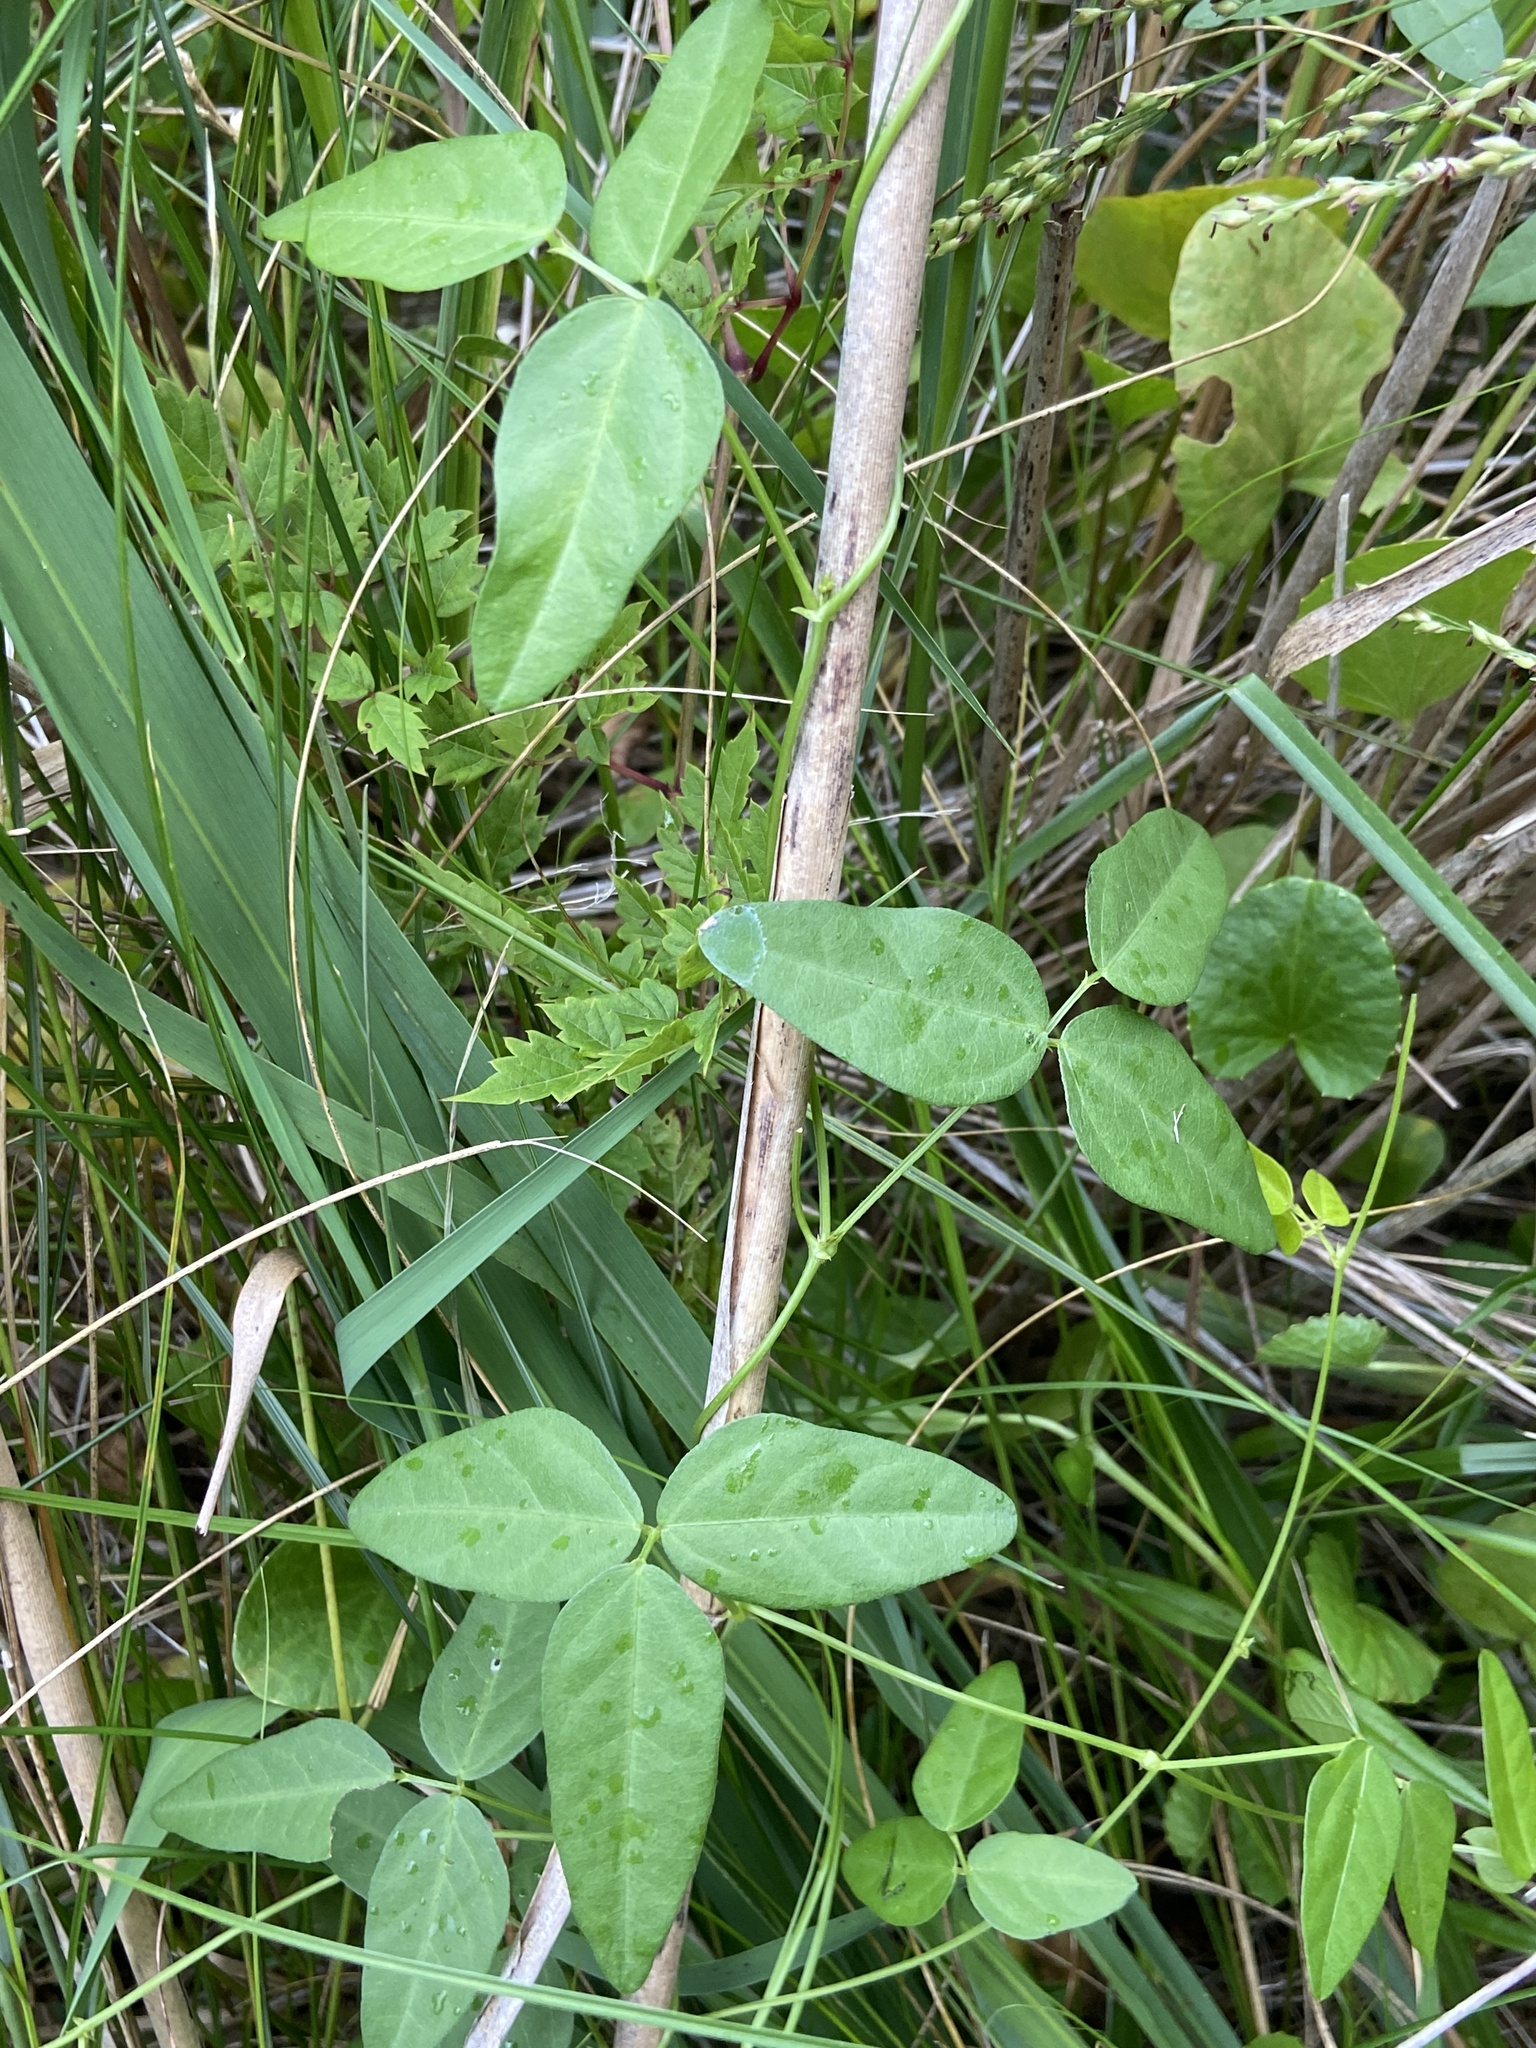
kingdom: Plantae
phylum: Tracheophyta
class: Magnoliopsida
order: Fabales
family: Fabaceae
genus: Clitoria
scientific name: Clitoria mariana
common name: Butterfly-pea
